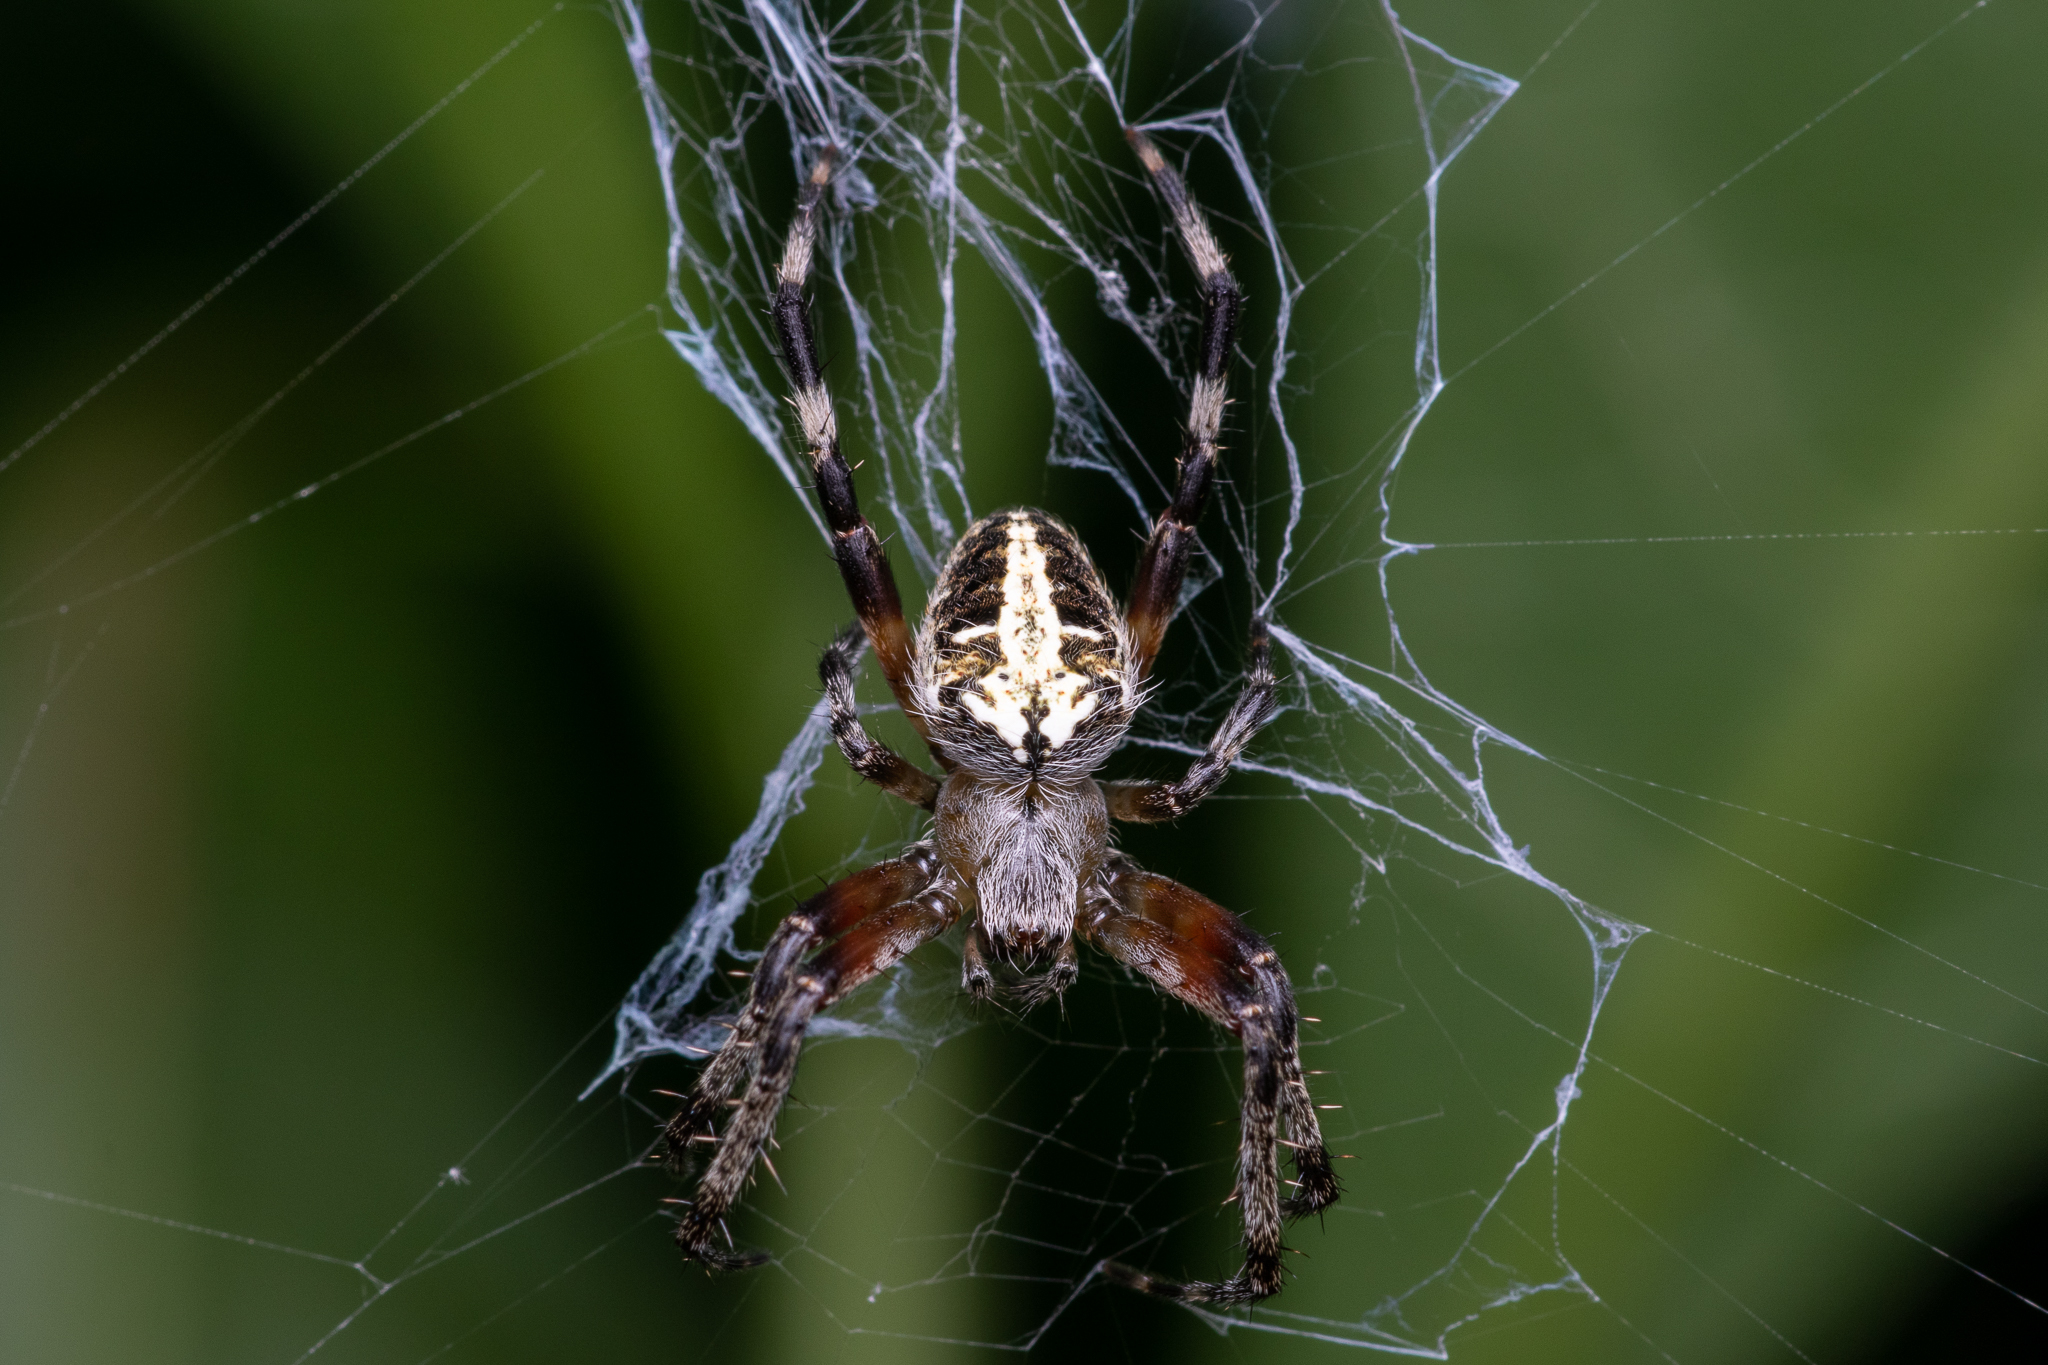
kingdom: Animalia
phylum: Arthropoda
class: Arachnida
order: Araneae
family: Araneidae
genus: Neoscona
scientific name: Neoscona domiciliorum
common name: Red-femured spotted orbweaver
